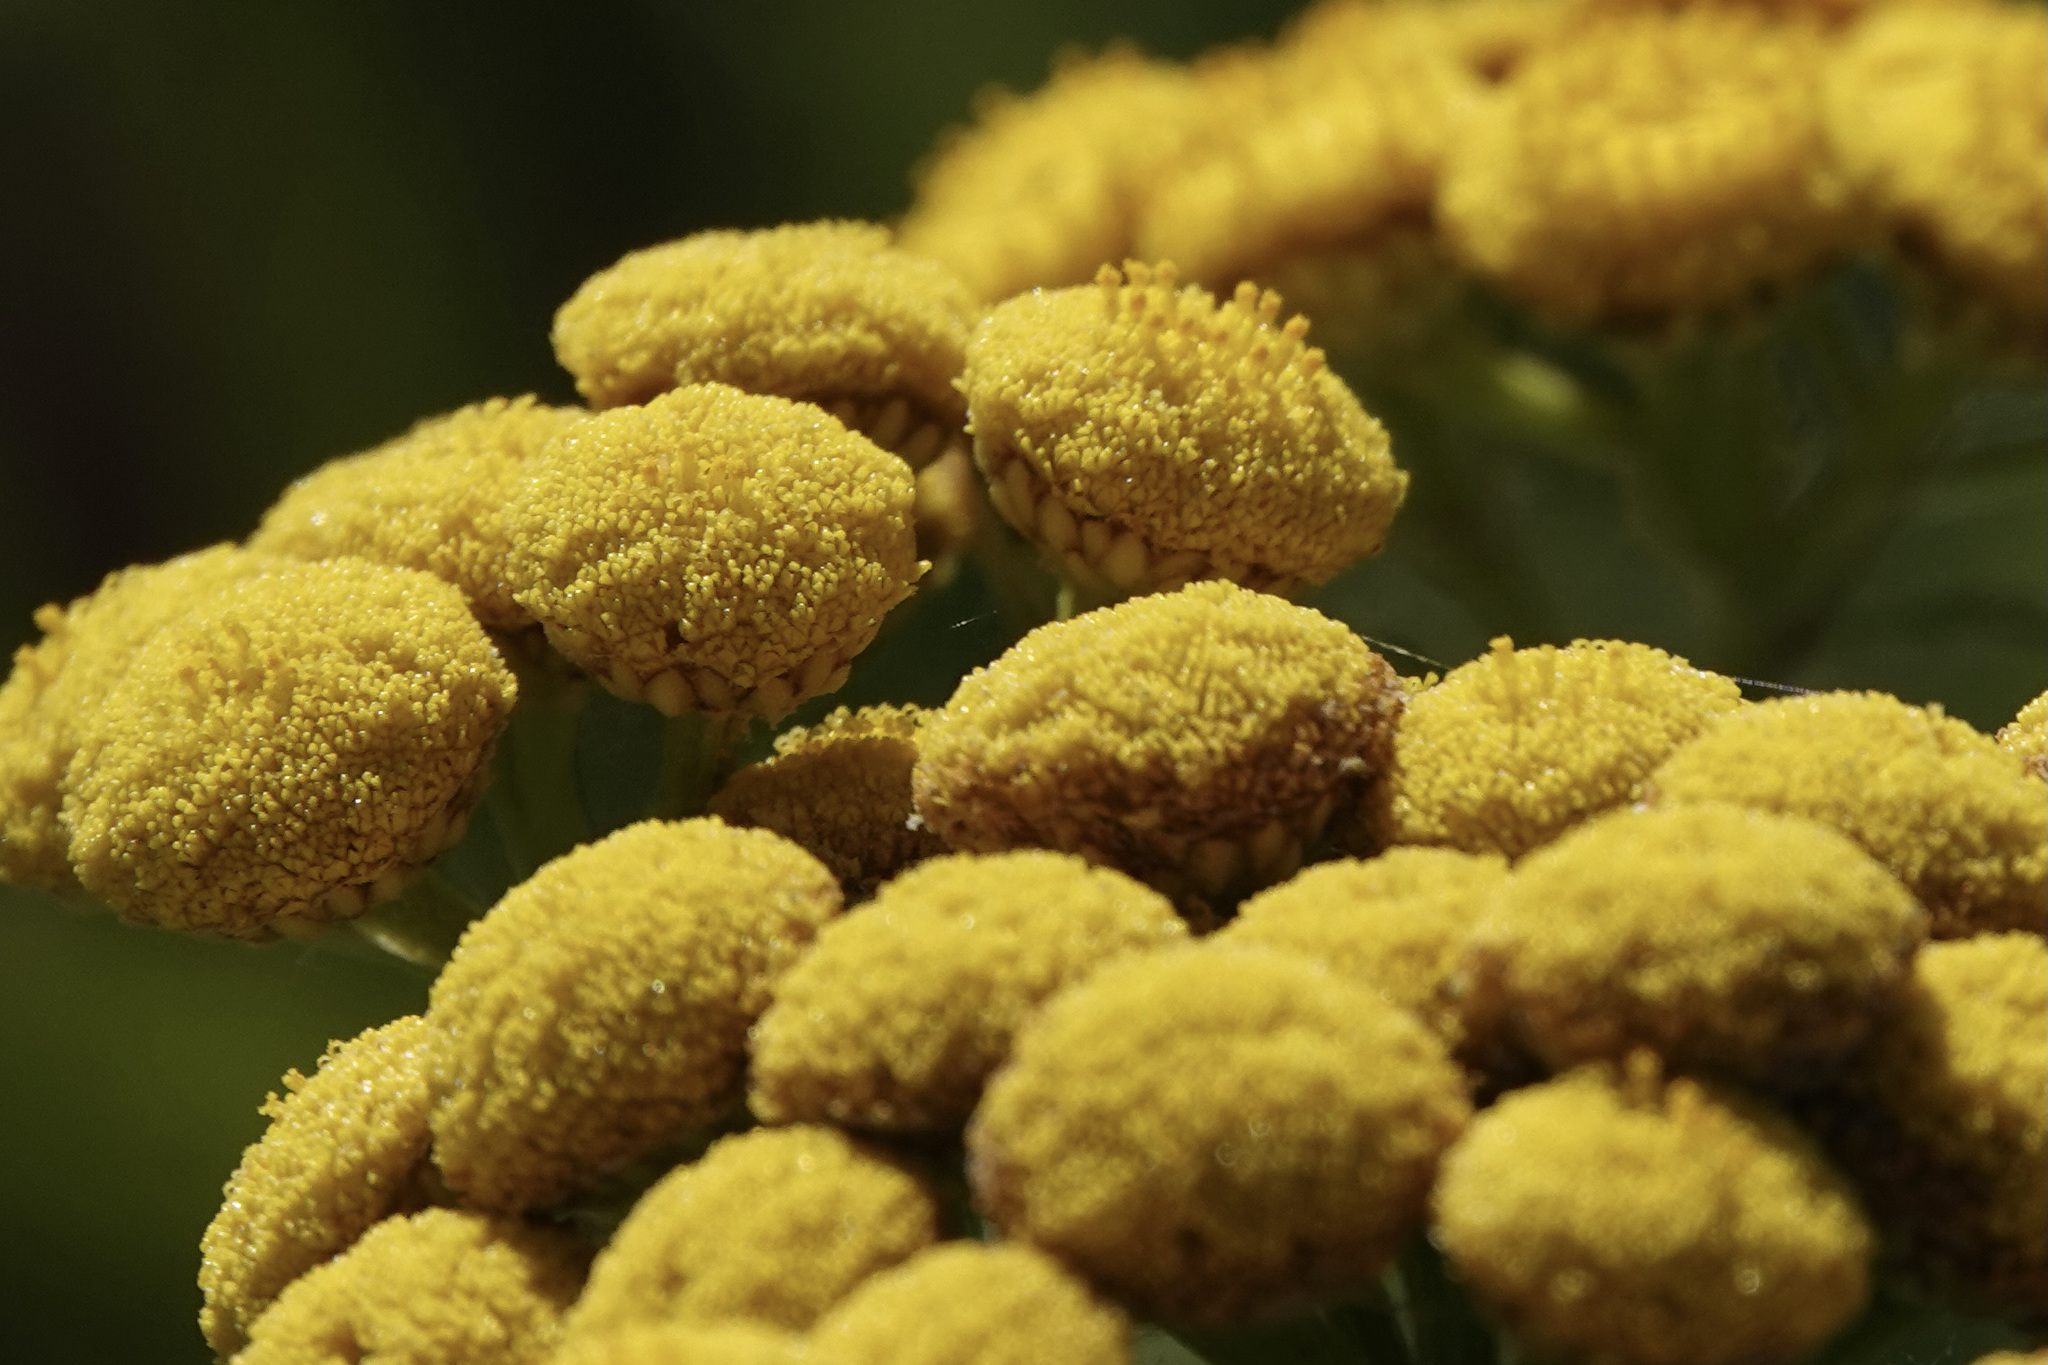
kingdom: Plantae
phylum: Tracheophyta
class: Magnoliopsida
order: Asterales
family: Asteraceae
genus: Tanacetum
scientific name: Tanacetum vulgare
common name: Common tansy
